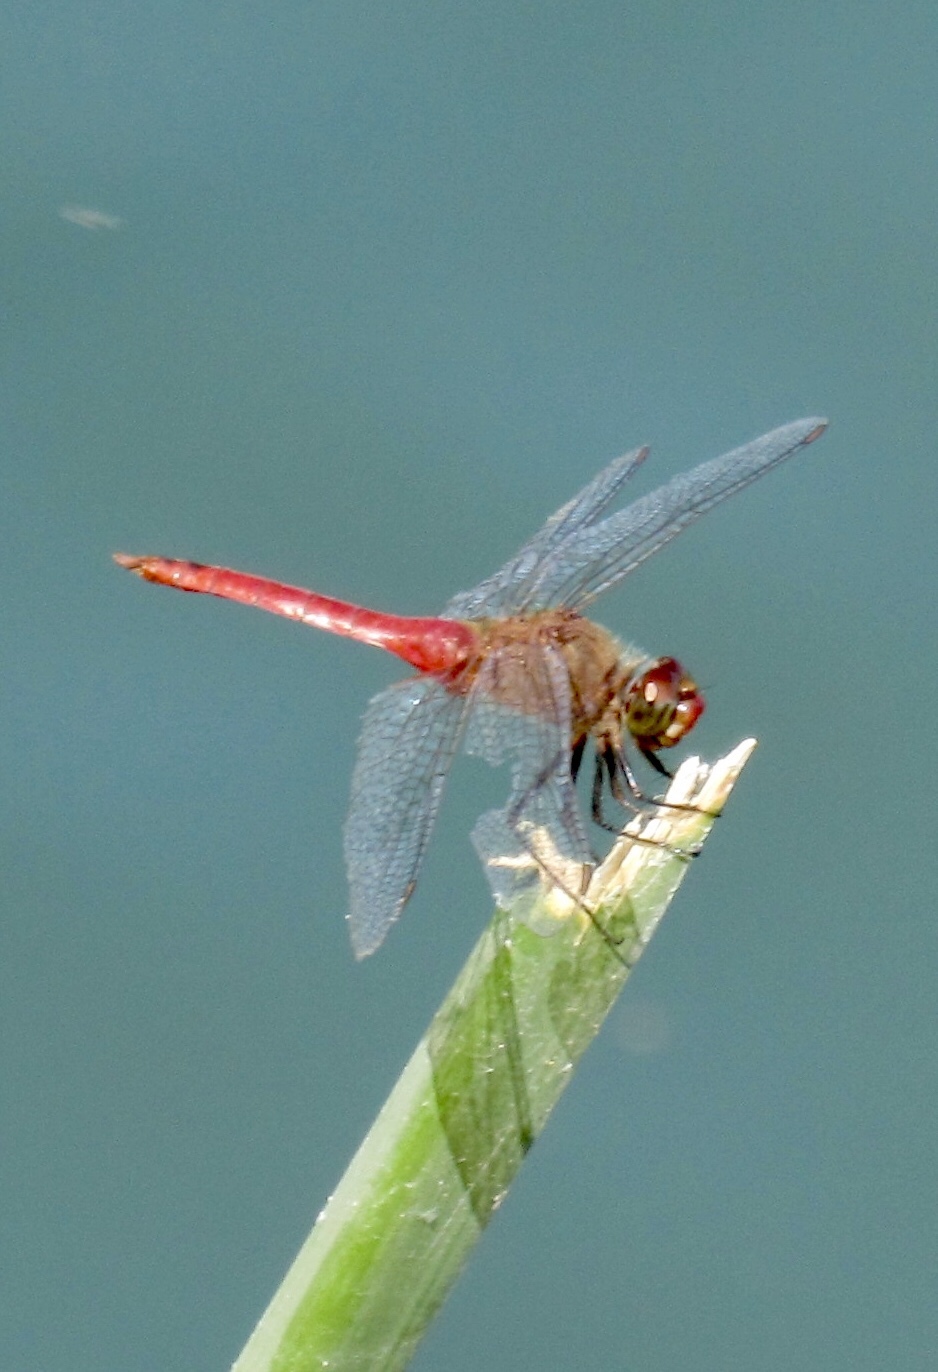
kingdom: Animalia
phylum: Arthropoda
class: Insecta
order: Odonata
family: Libellulidae
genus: Brachymesia
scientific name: Brachymesia furcata
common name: Red-taled pennant
